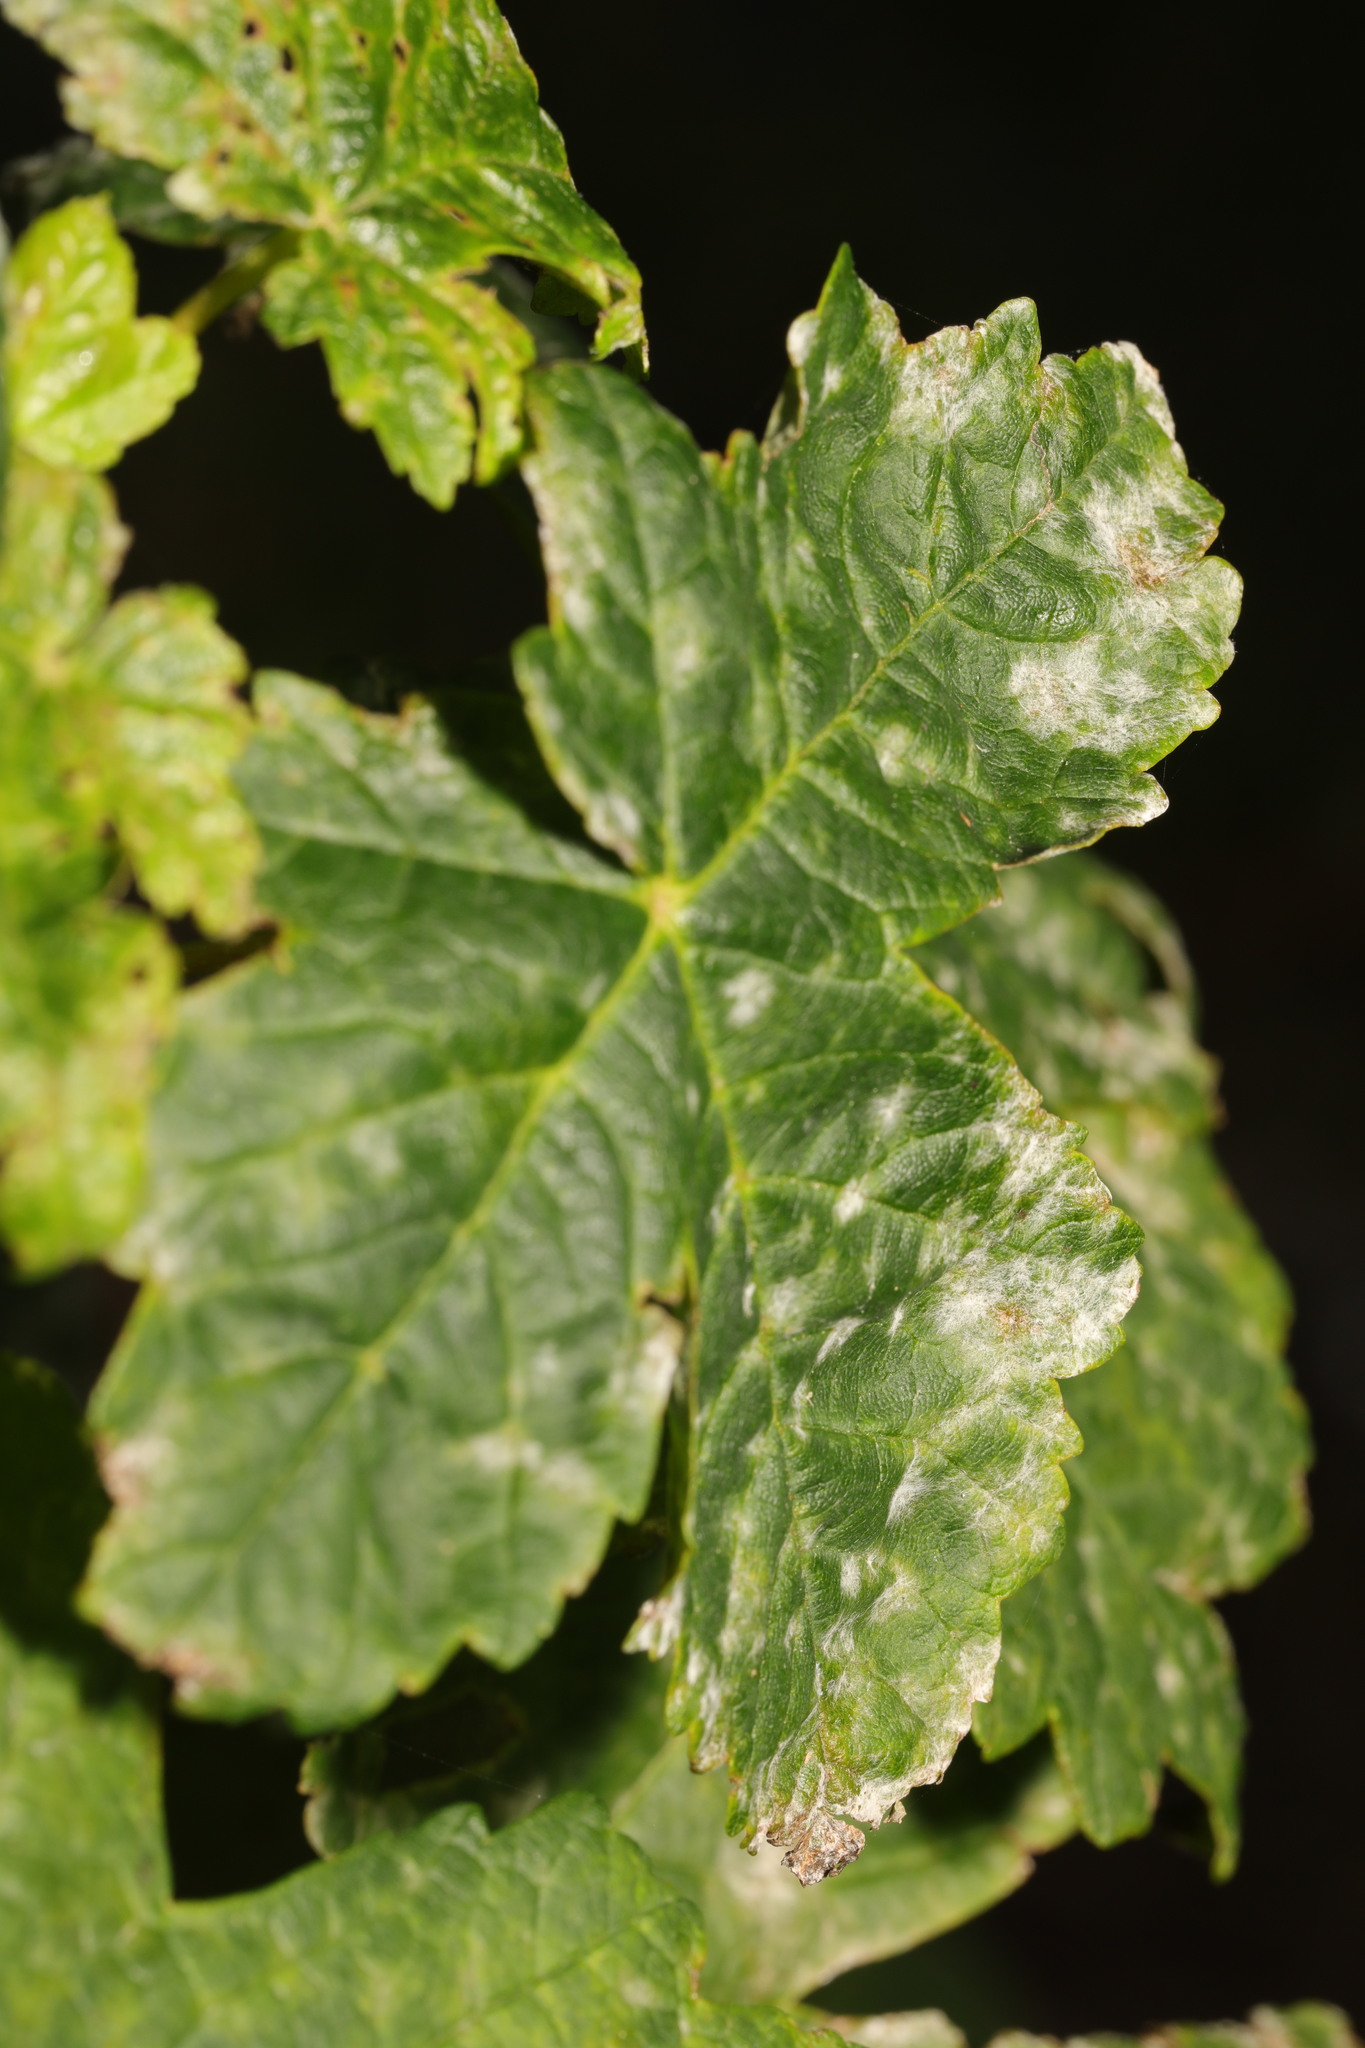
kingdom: Fungi
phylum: Ascomycota
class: Leotiomycetes
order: Helotiales
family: Erysiphaceae
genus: Sawadaea
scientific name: Sawadaea bicornis
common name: Maple mildew
